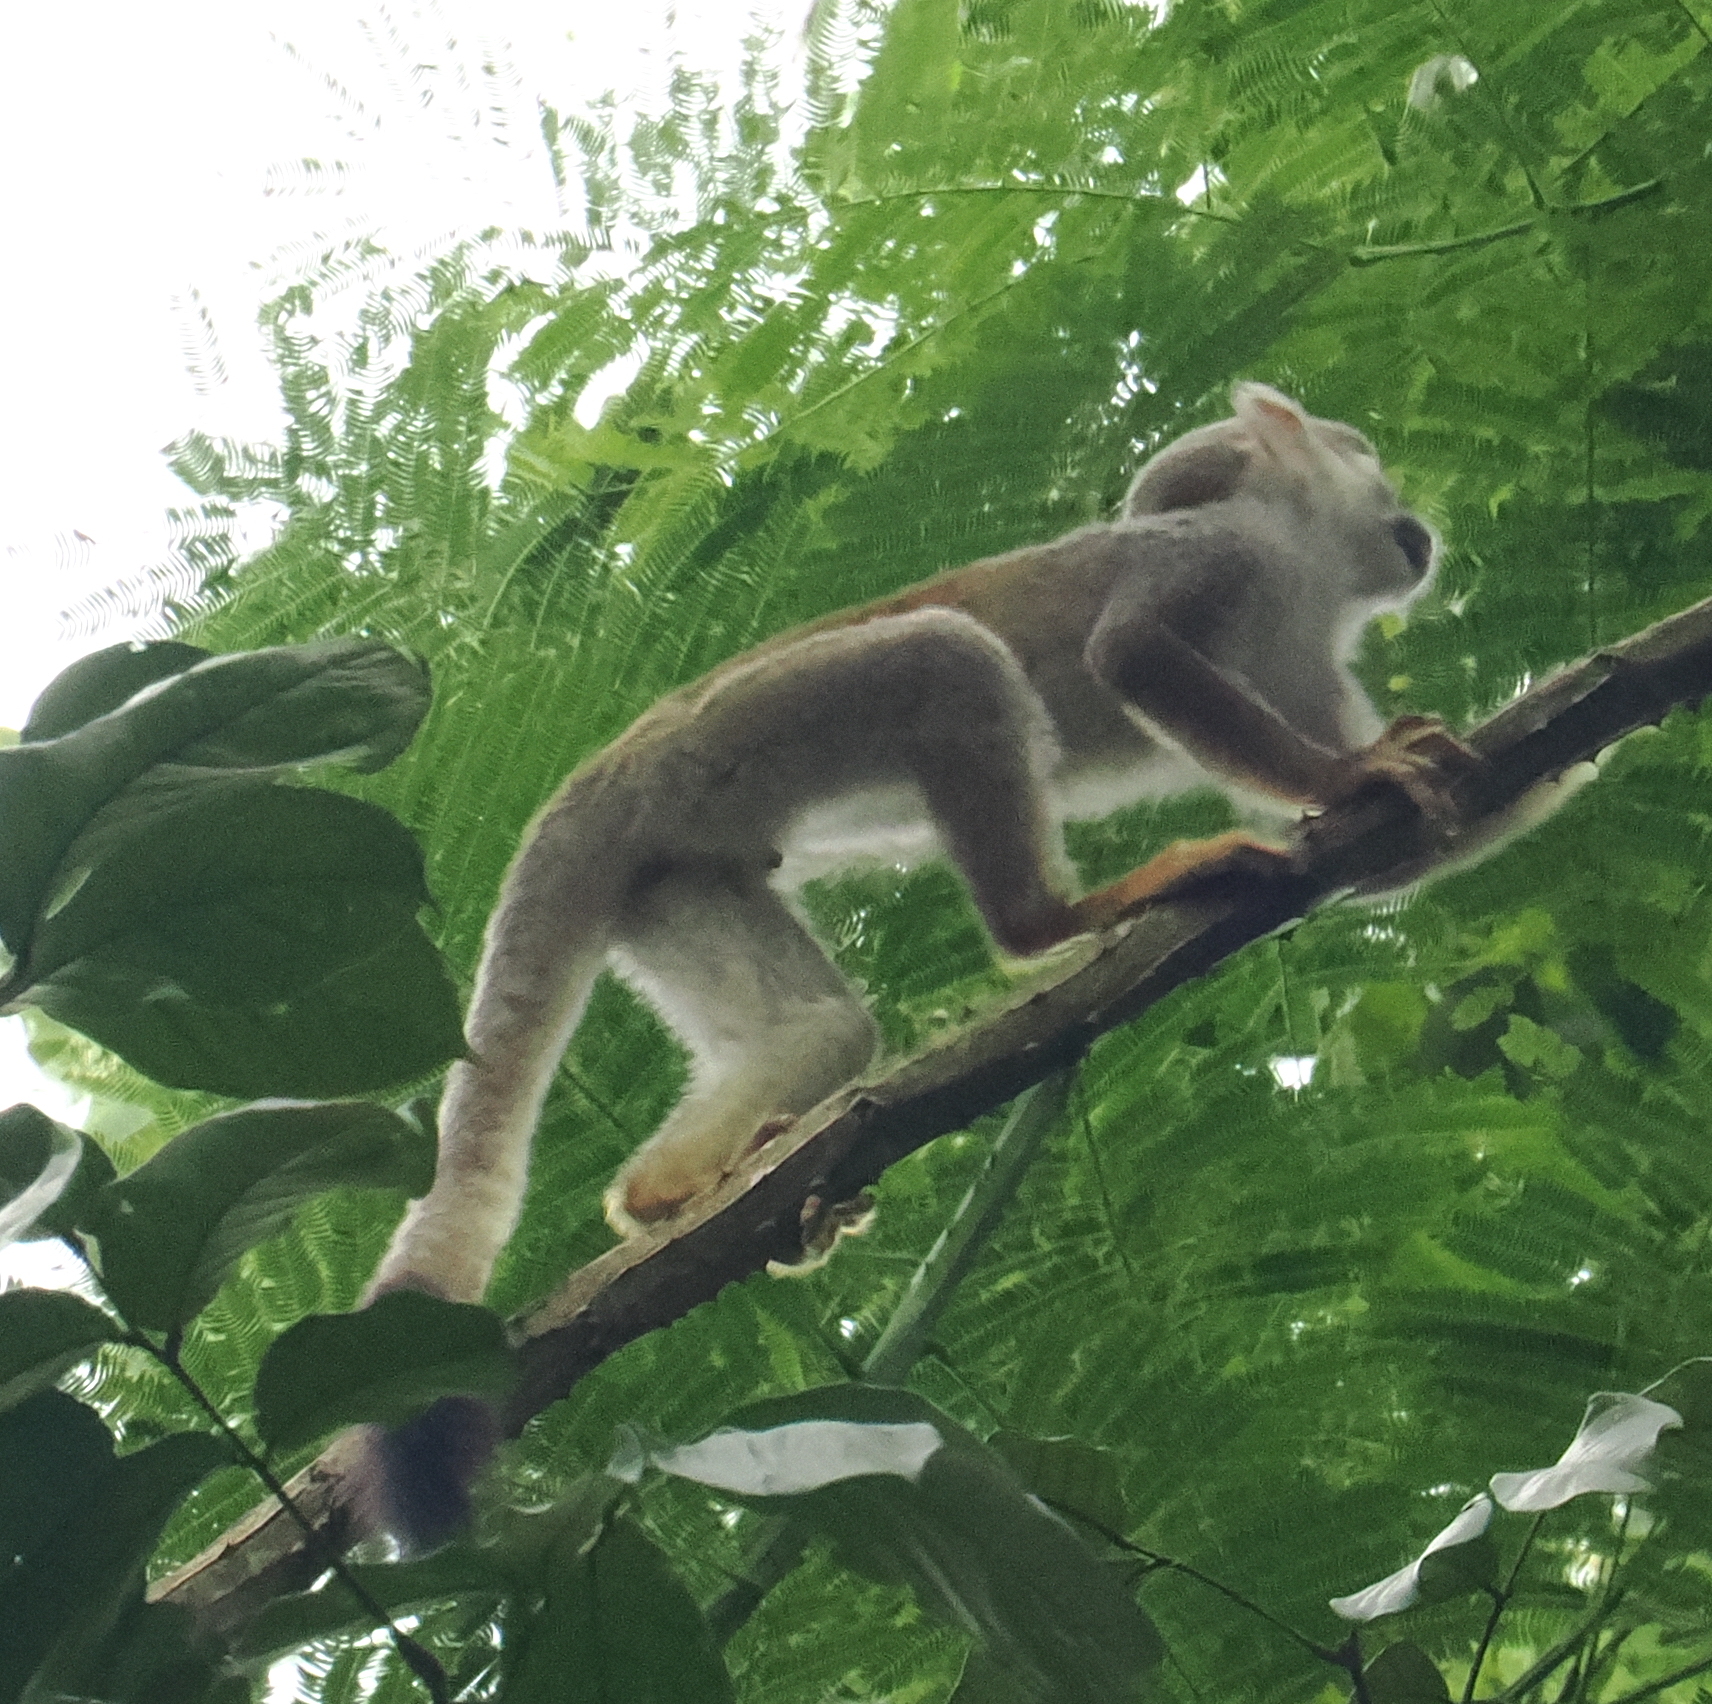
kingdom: Animalia
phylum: Chordata
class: Mammalia
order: Primates
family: Cebidae
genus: Saimiri
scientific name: Saimiri cassiquiarensis
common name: Humboldt’s squirrel monkey
